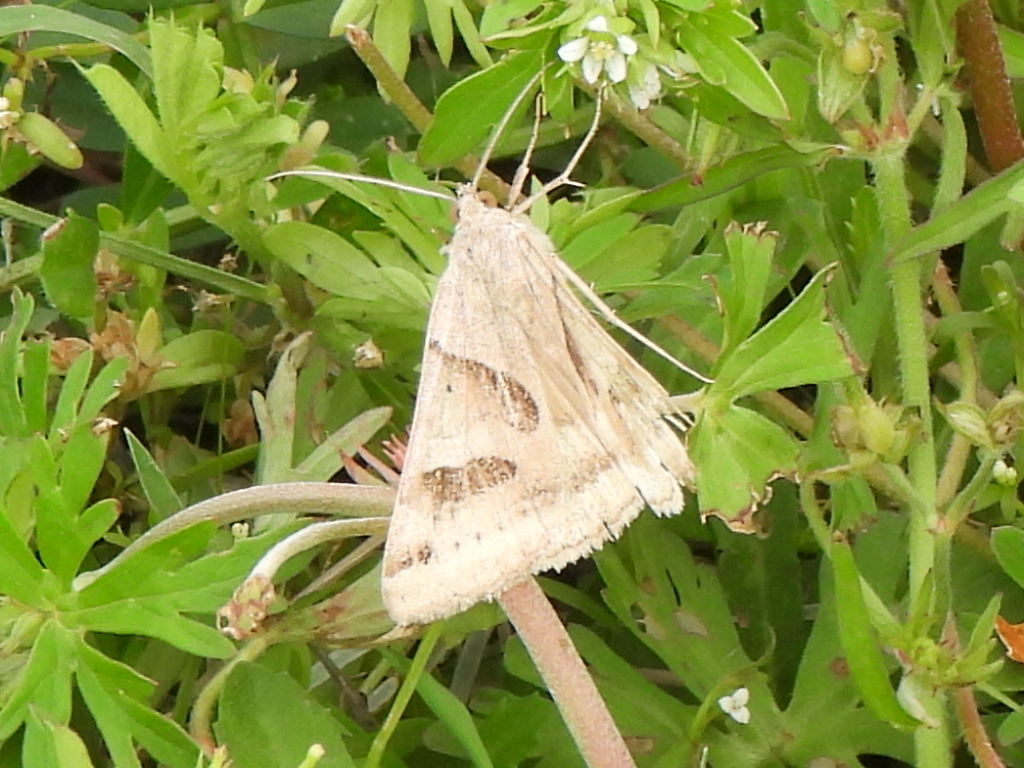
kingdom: Animalia
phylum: Arthropoda
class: Insecta
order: Lepidoptera
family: Erebidae
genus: Caenurgina
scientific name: Caenurgina erechtea
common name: Forage looper moth
